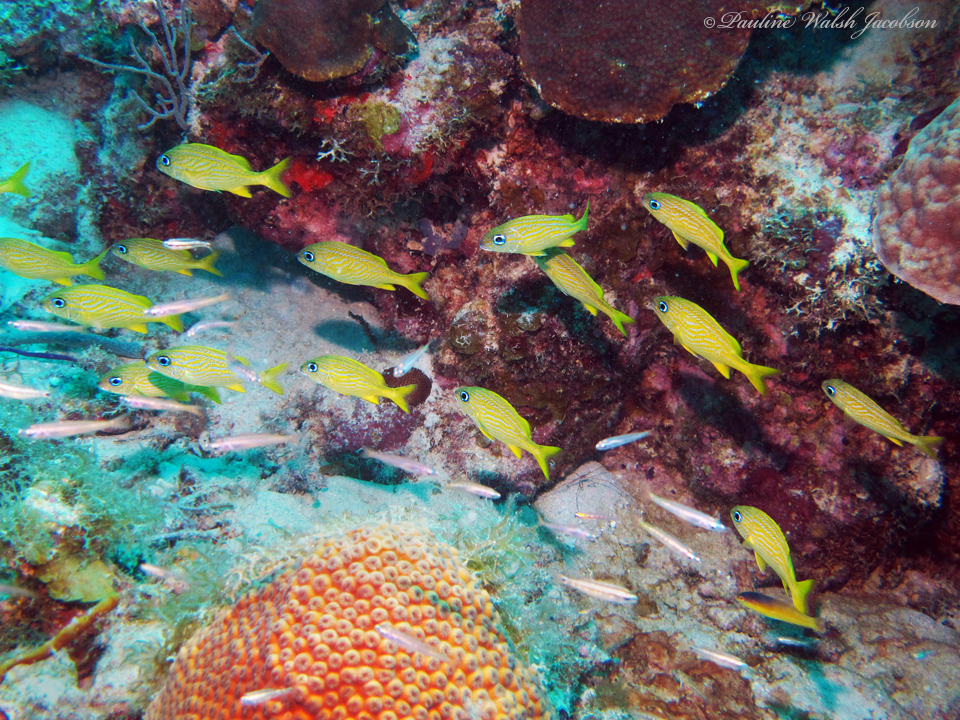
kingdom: Animalia
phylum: Chordata
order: Perciformes
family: Haemulidae
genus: Haemulon
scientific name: Haemulon flavolineatum
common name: French grunt
